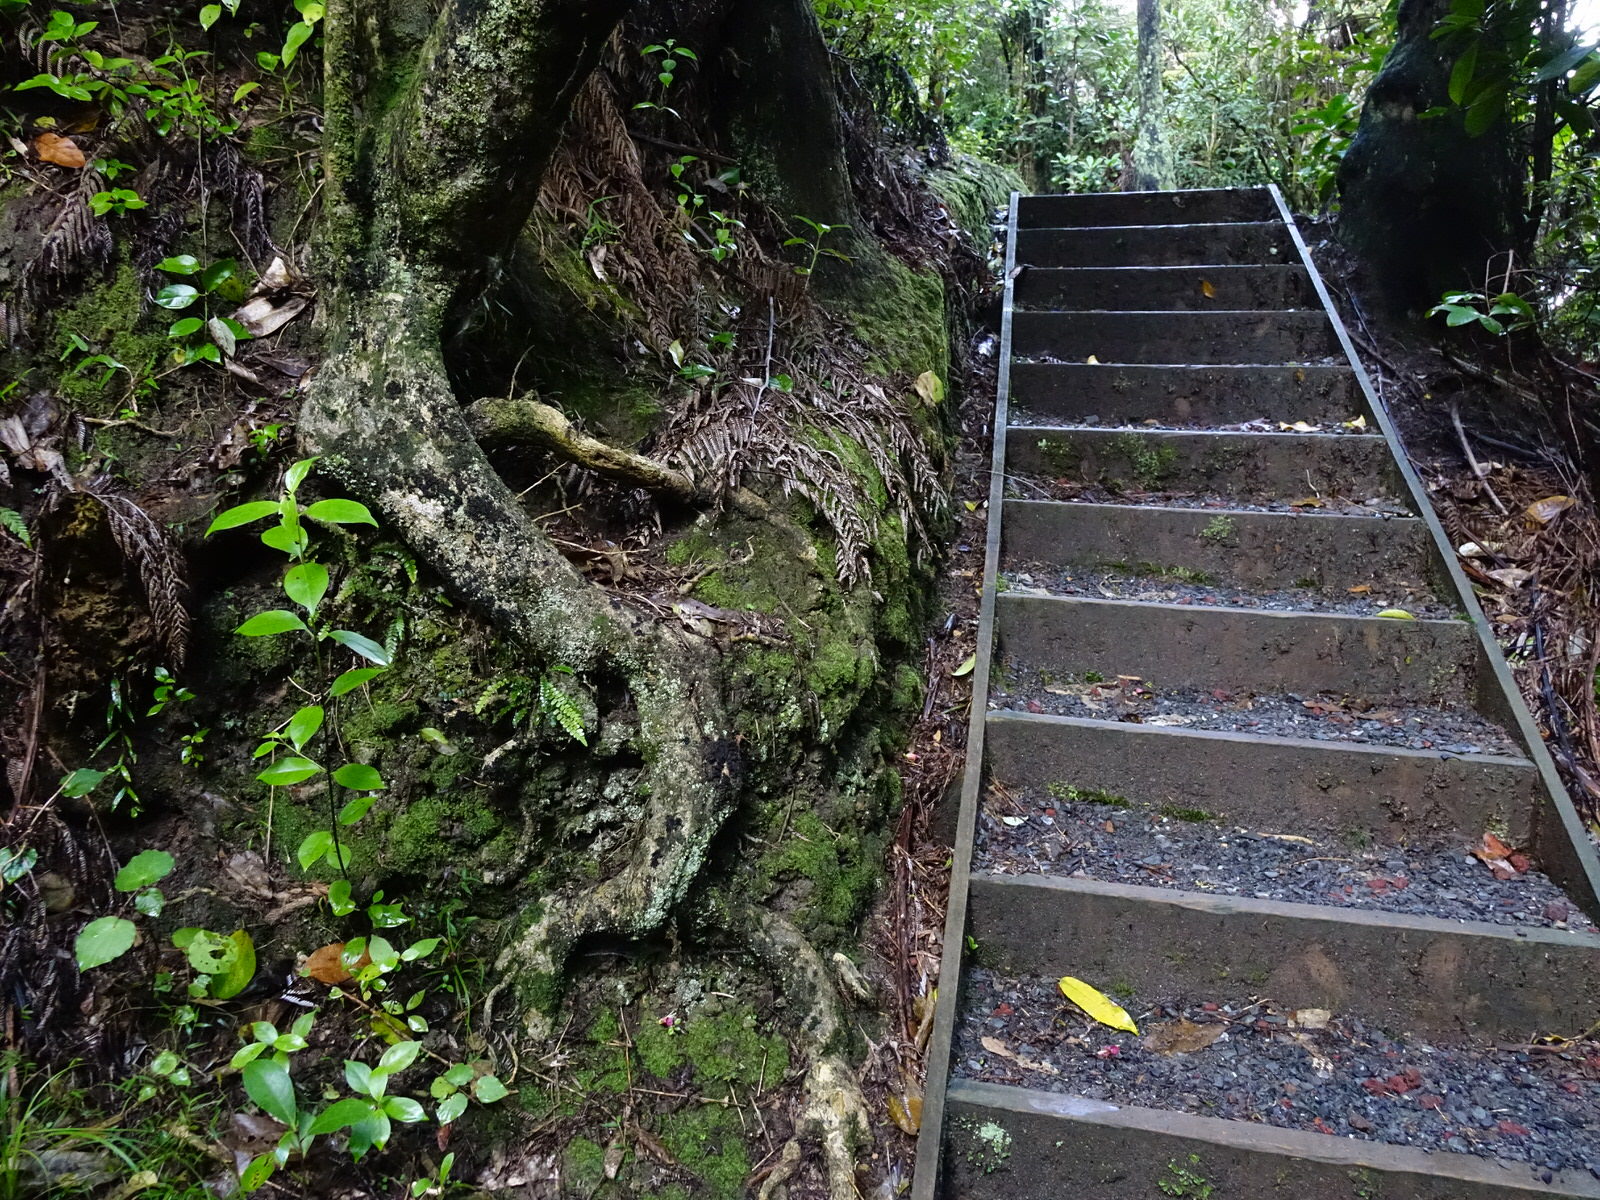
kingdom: Plantae
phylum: Tracheophyta
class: Polypodiopsida
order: Polypodiales
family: Blechnaceae
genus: Austroblechnum
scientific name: Austroblechnum membranaceum
